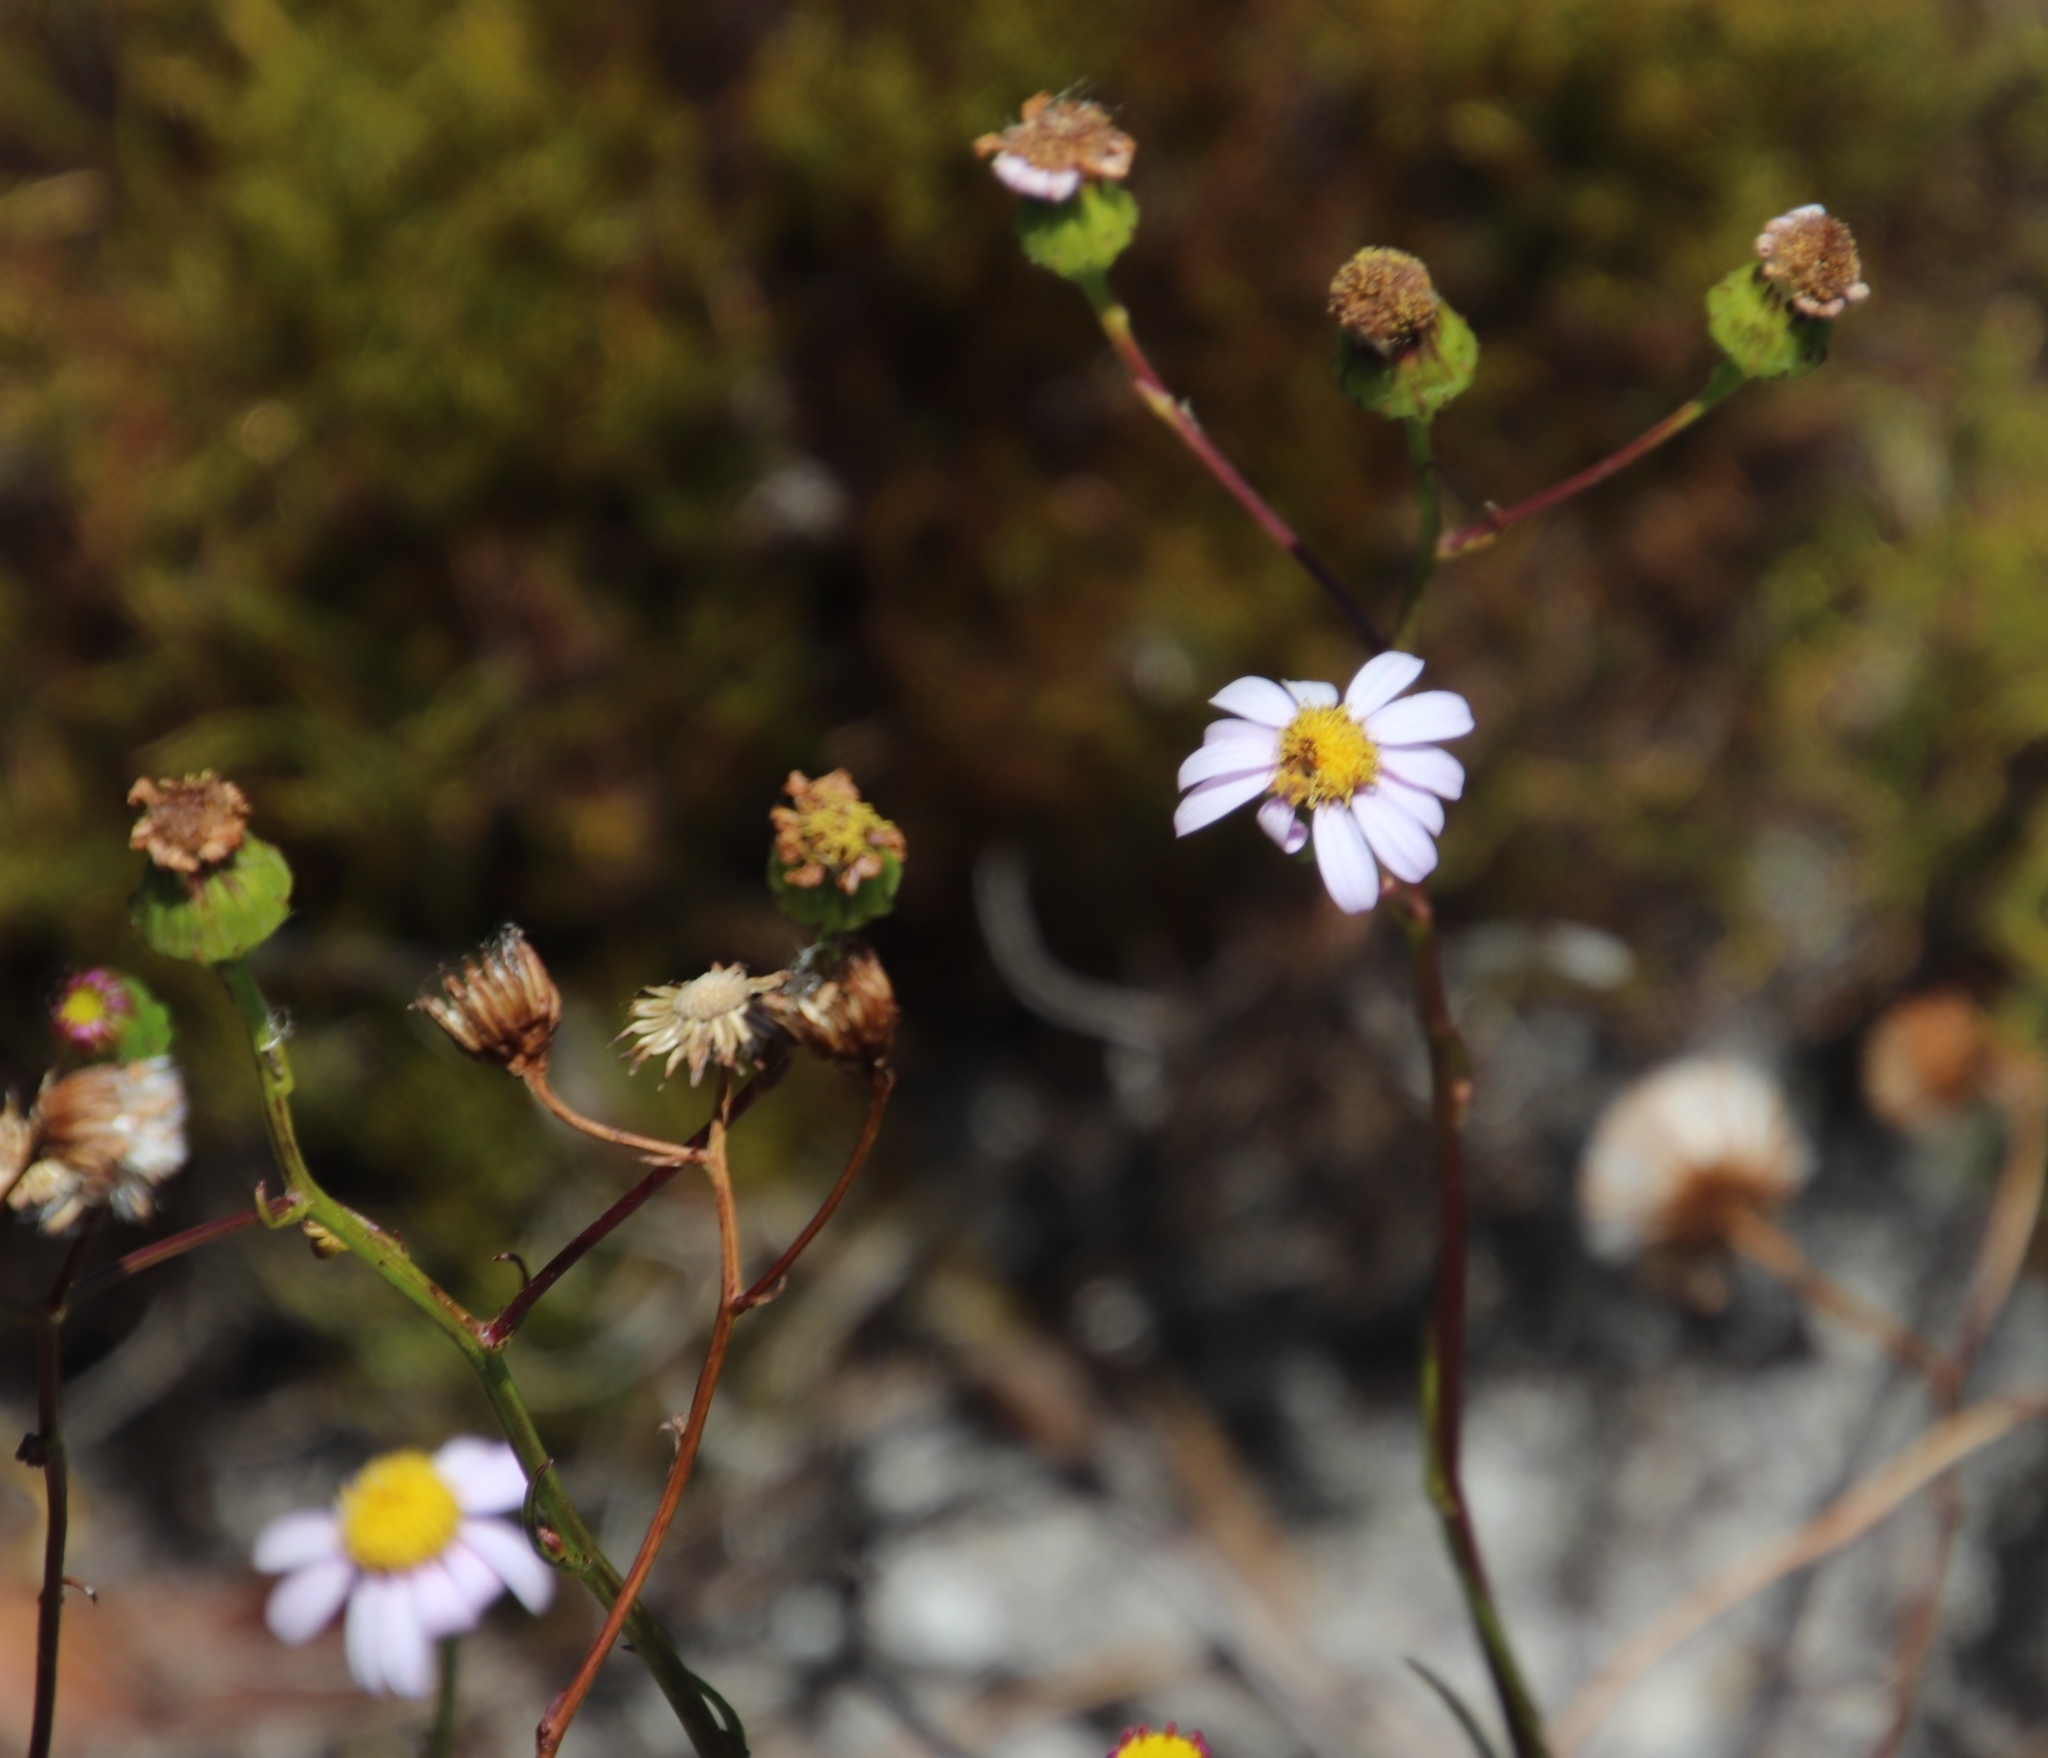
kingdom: Plantae
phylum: Tracheophyta
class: Magnoliopsida
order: Asterales
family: Asteraceae
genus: Senecio
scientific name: Senecio umbellatus
